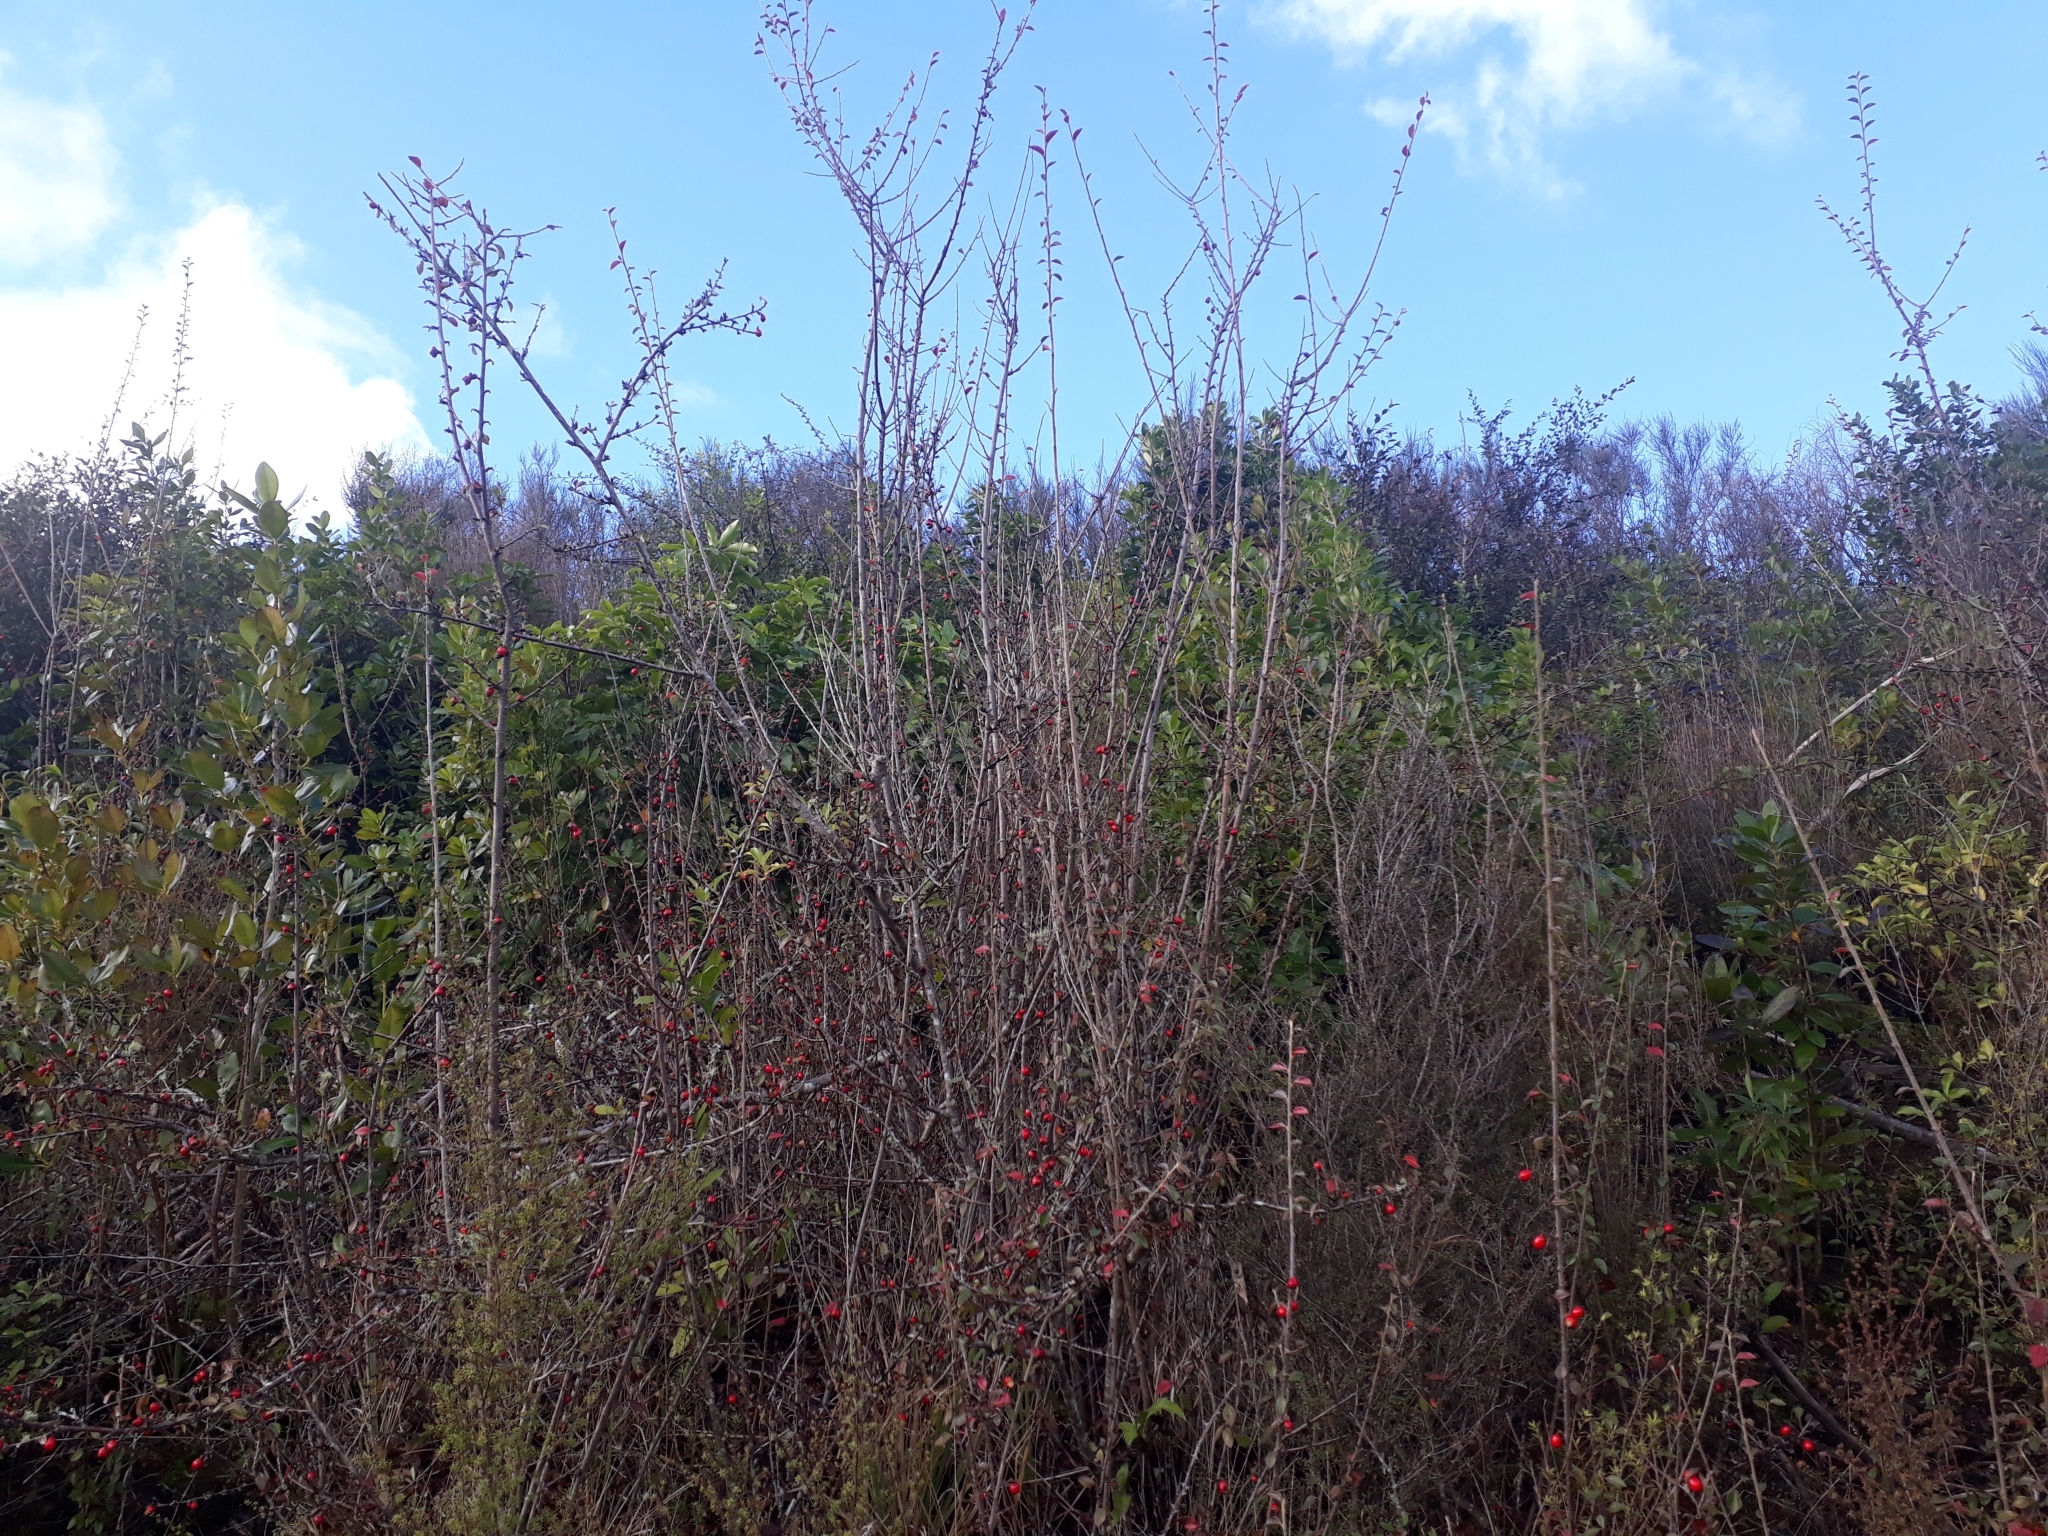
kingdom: Plantae
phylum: Tracheophyta
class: Magnoliopsida
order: Rosales
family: Rosaceae
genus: Cotoneaster
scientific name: Cotoneaster simonsii
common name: Himalayan cotoneaster
